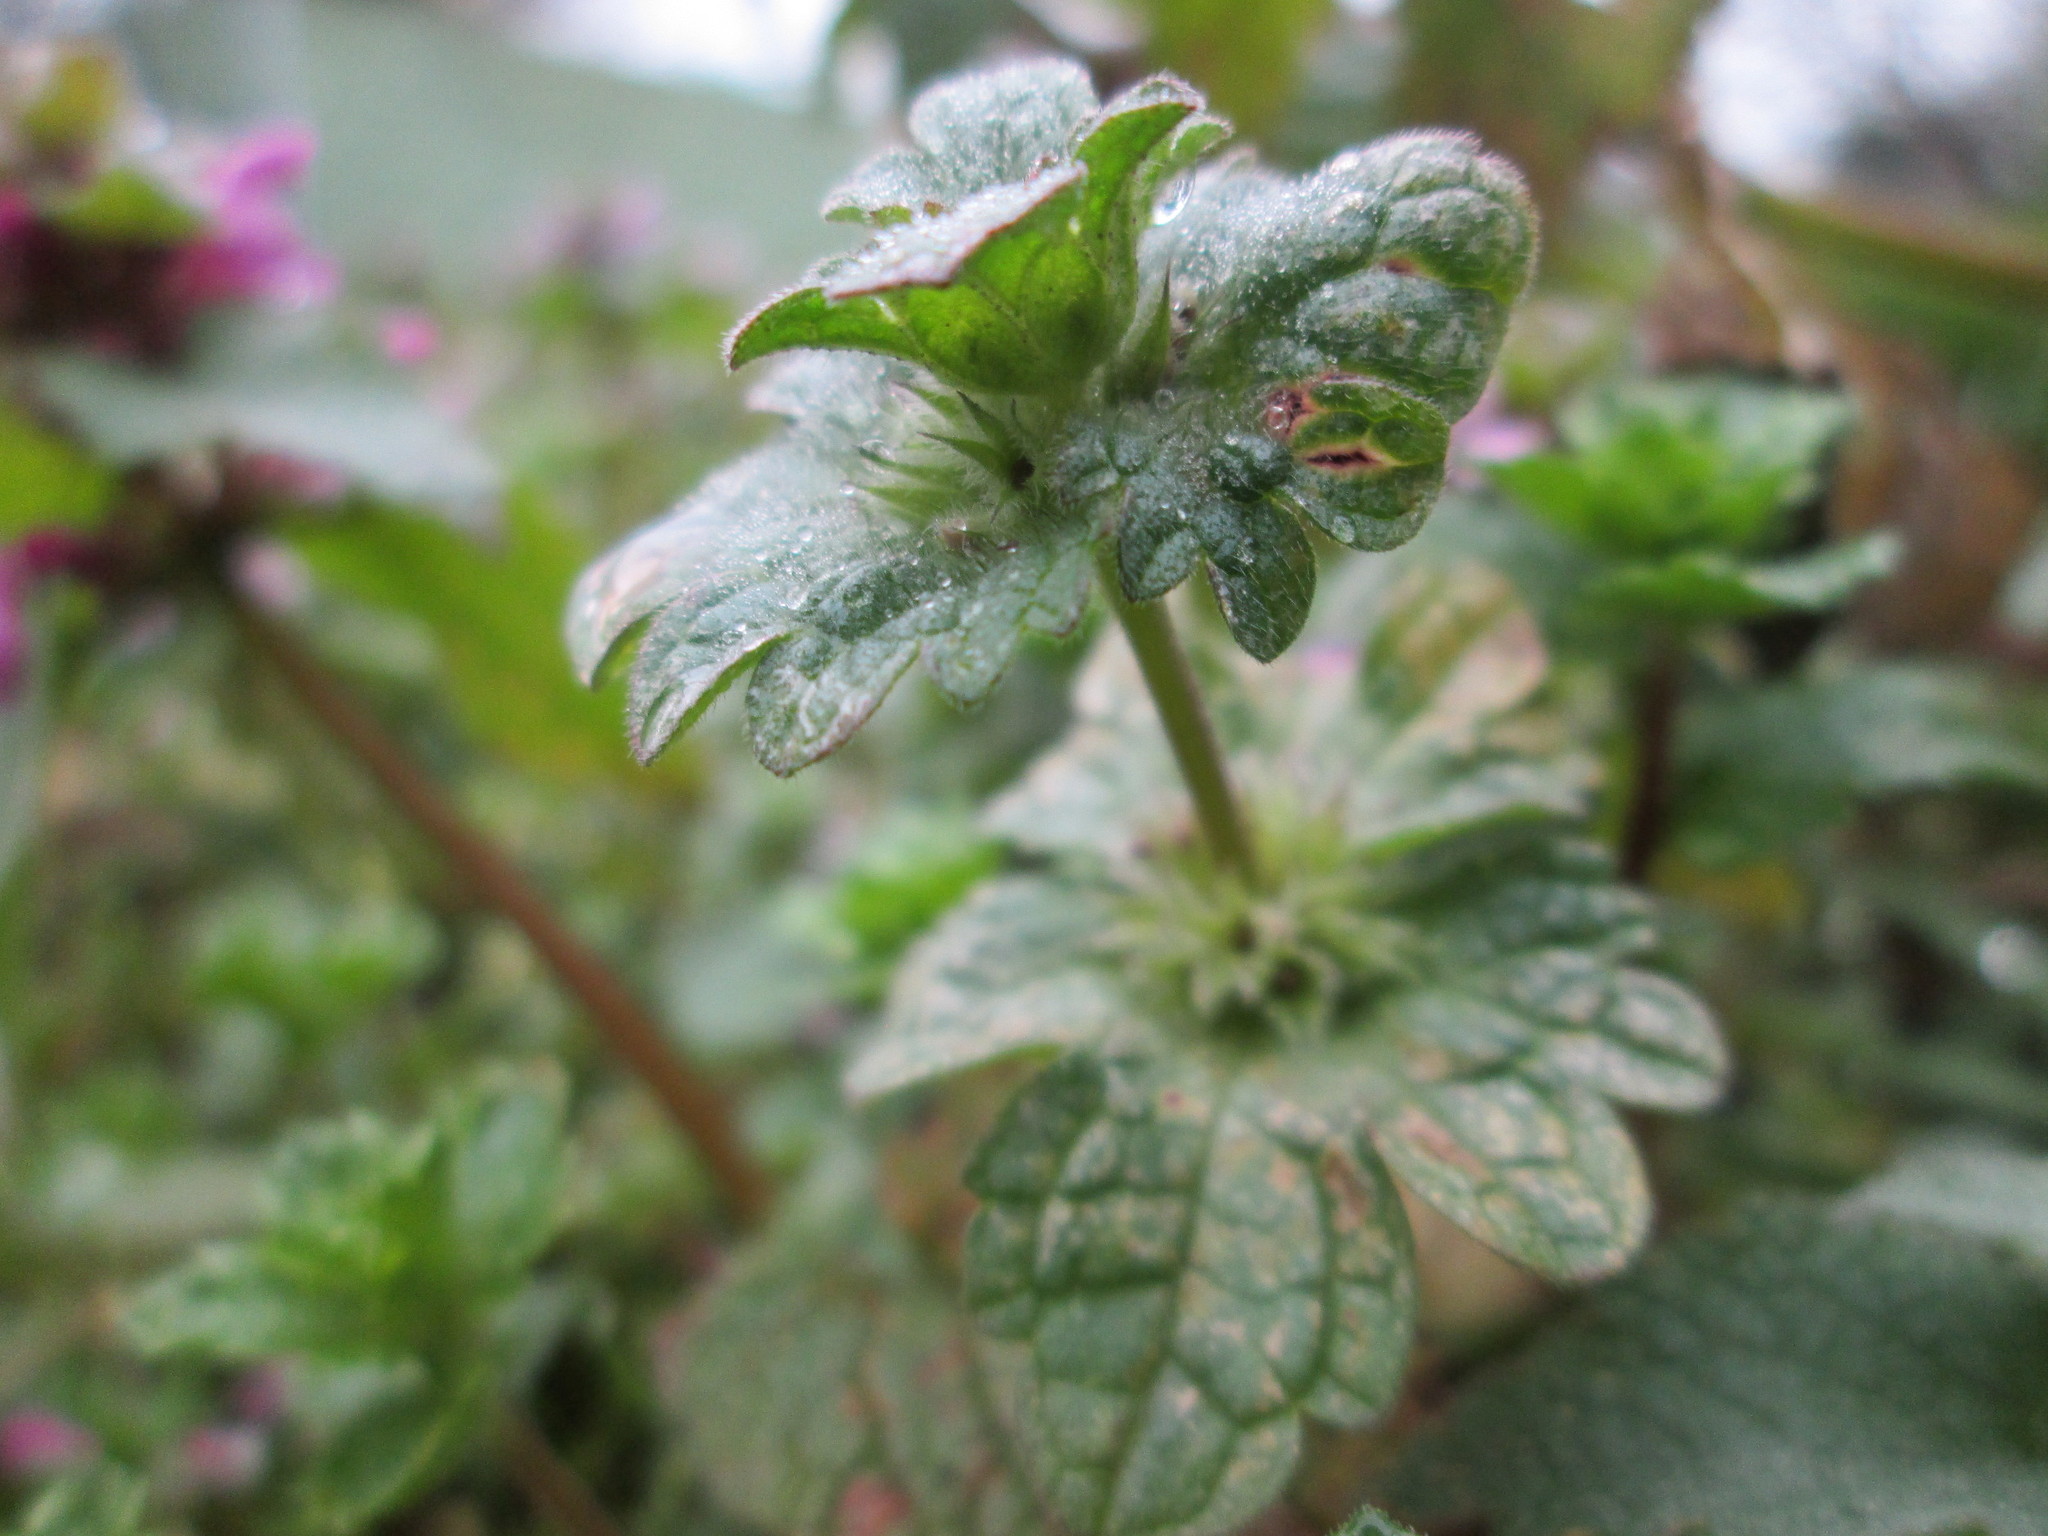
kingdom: Plantae
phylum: Tracheophyta
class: Magnoliopsida
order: Lamiales
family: Lamiaceae
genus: Lamium
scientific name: Lamium amplexicaule
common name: Henbit dead-nettle
